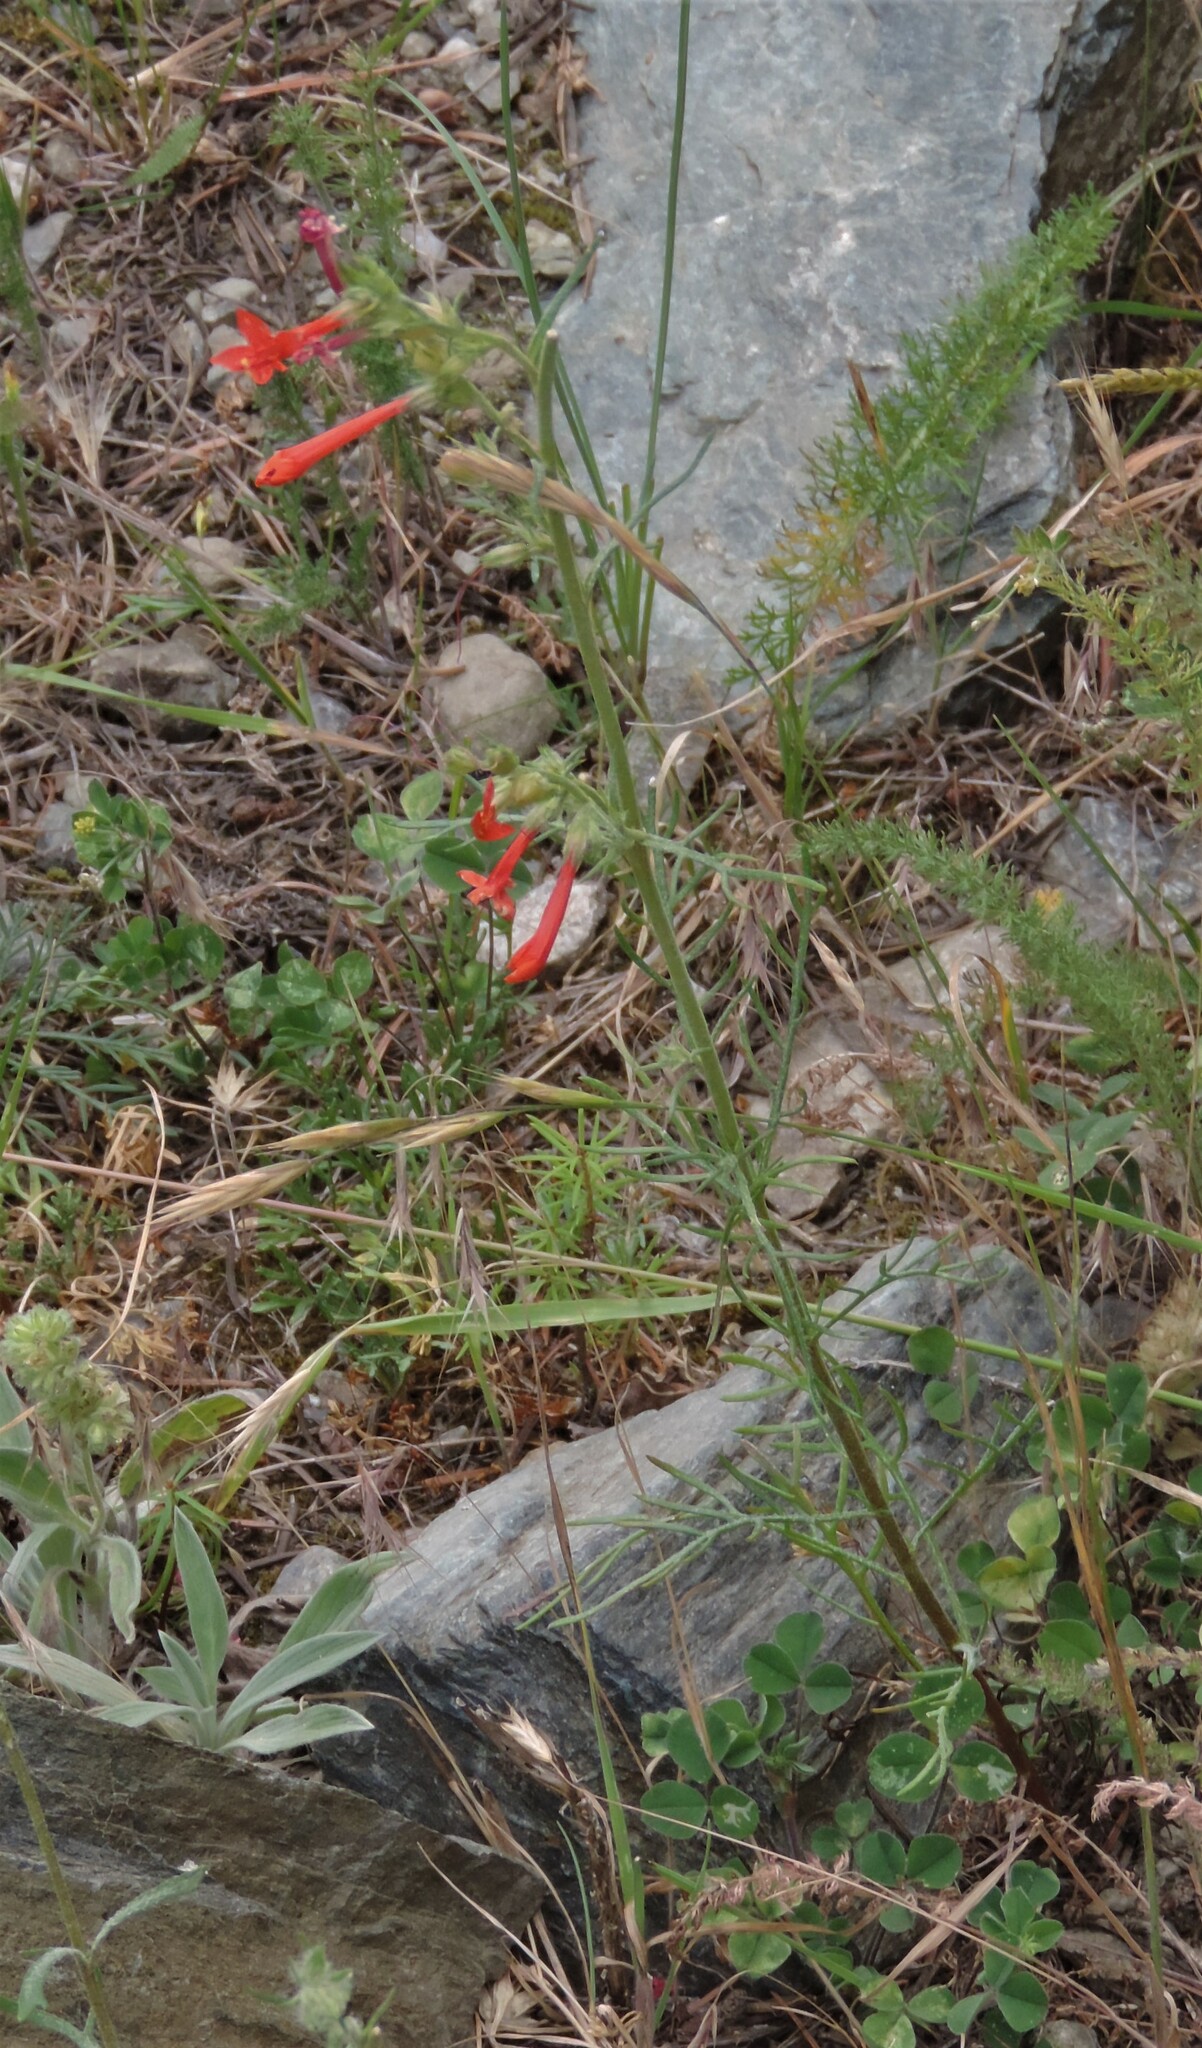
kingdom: Plantae
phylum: Tracheophyta
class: Magnoliopsida
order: Ericales
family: Polemoniaceae
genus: Ipomopsis
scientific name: Ipomopsis aggregata
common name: Scarlet gilia
